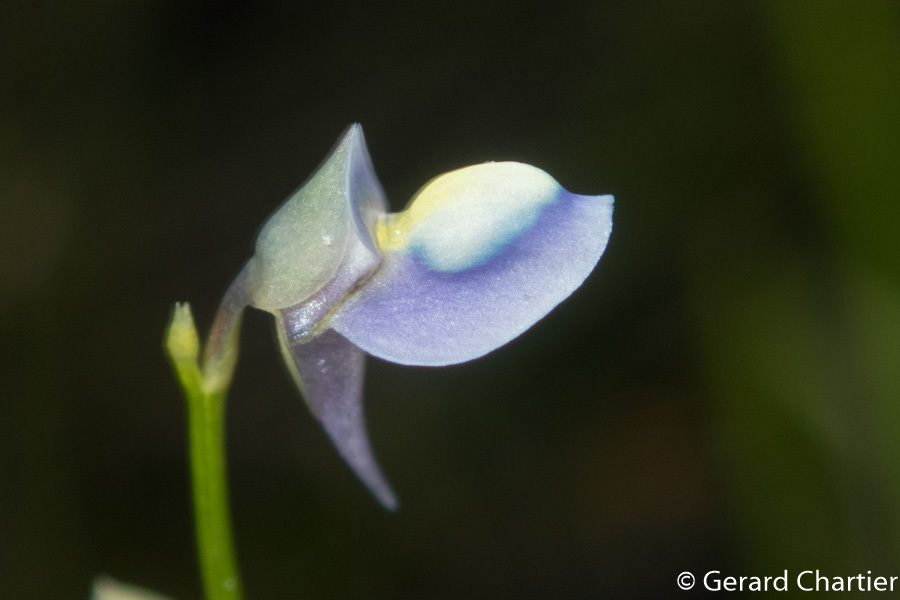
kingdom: Plantae
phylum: Tracheophyta
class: Magnoliopsida
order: Lamiales
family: Lentibulariaceae
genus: Utricularia
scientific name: Utricularia uliginosa
